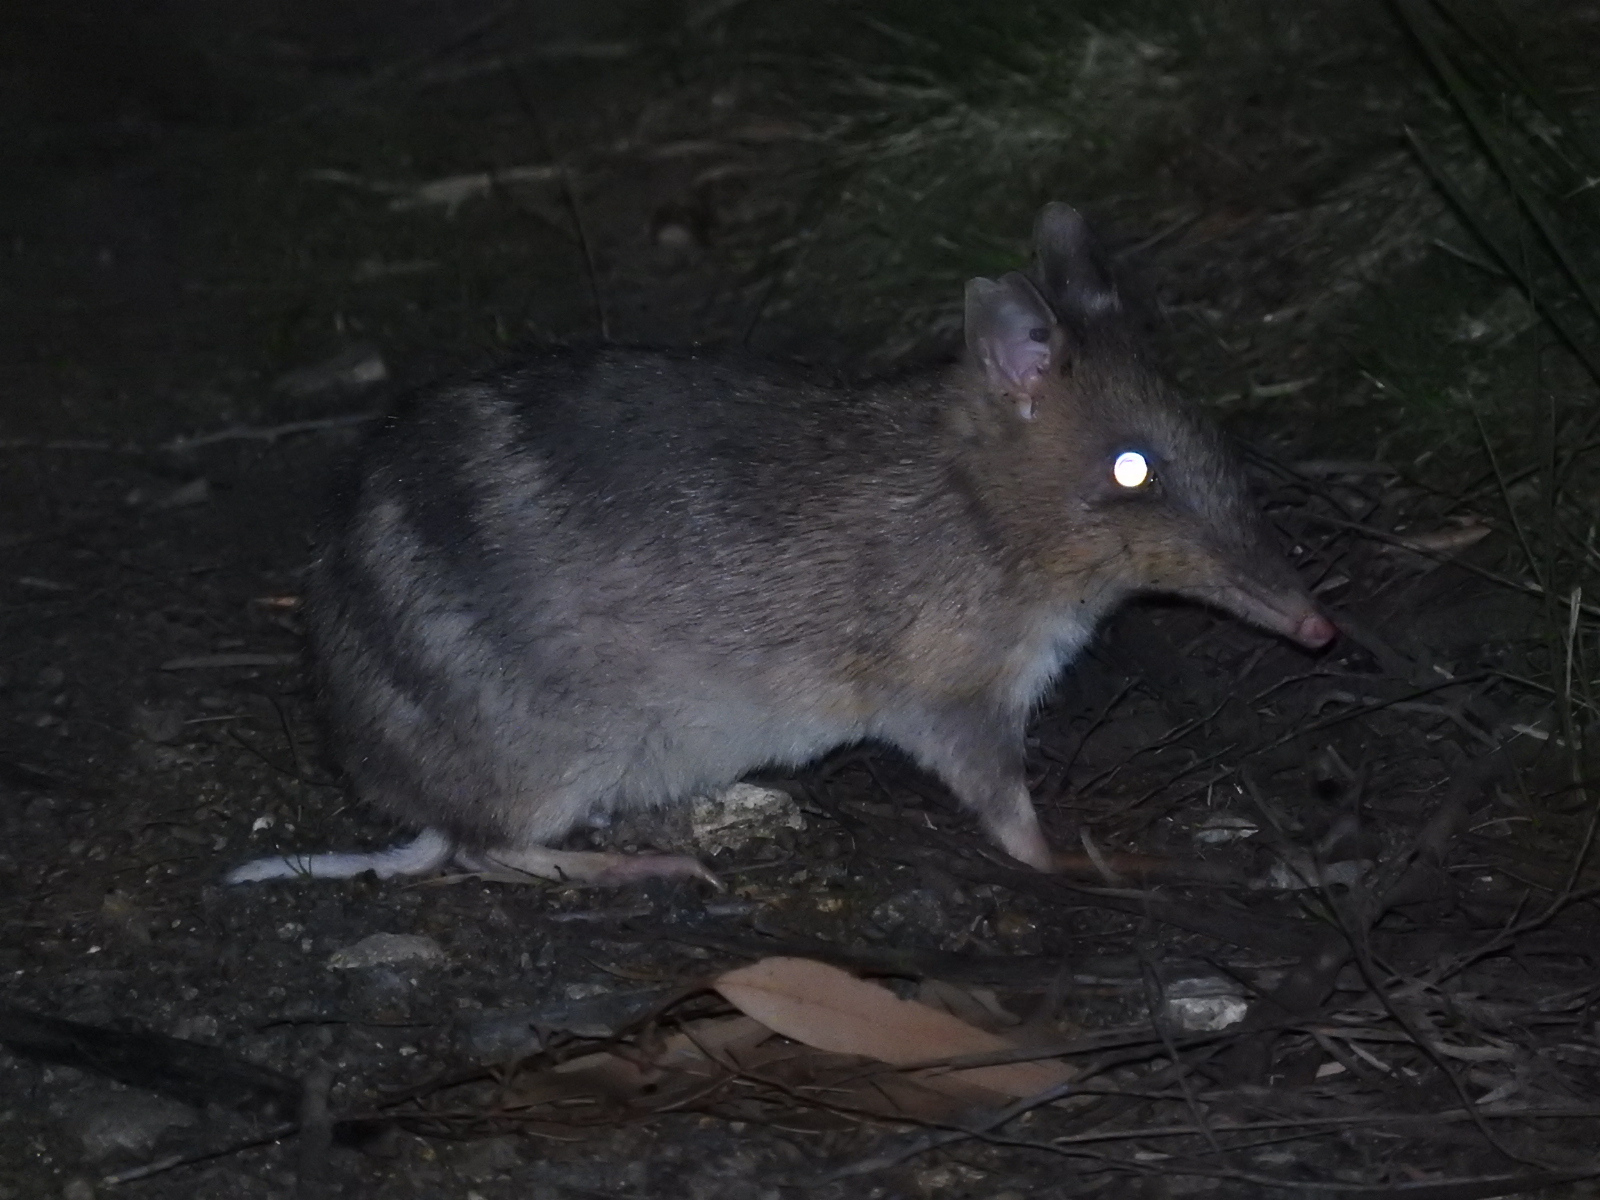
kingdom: Animalia
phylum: Chordata
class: Mammalia
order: Peramelemorphia
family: Peramelidae
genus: Perameles
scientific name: Perameles gunnii
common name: Eastern barred bandicoot
